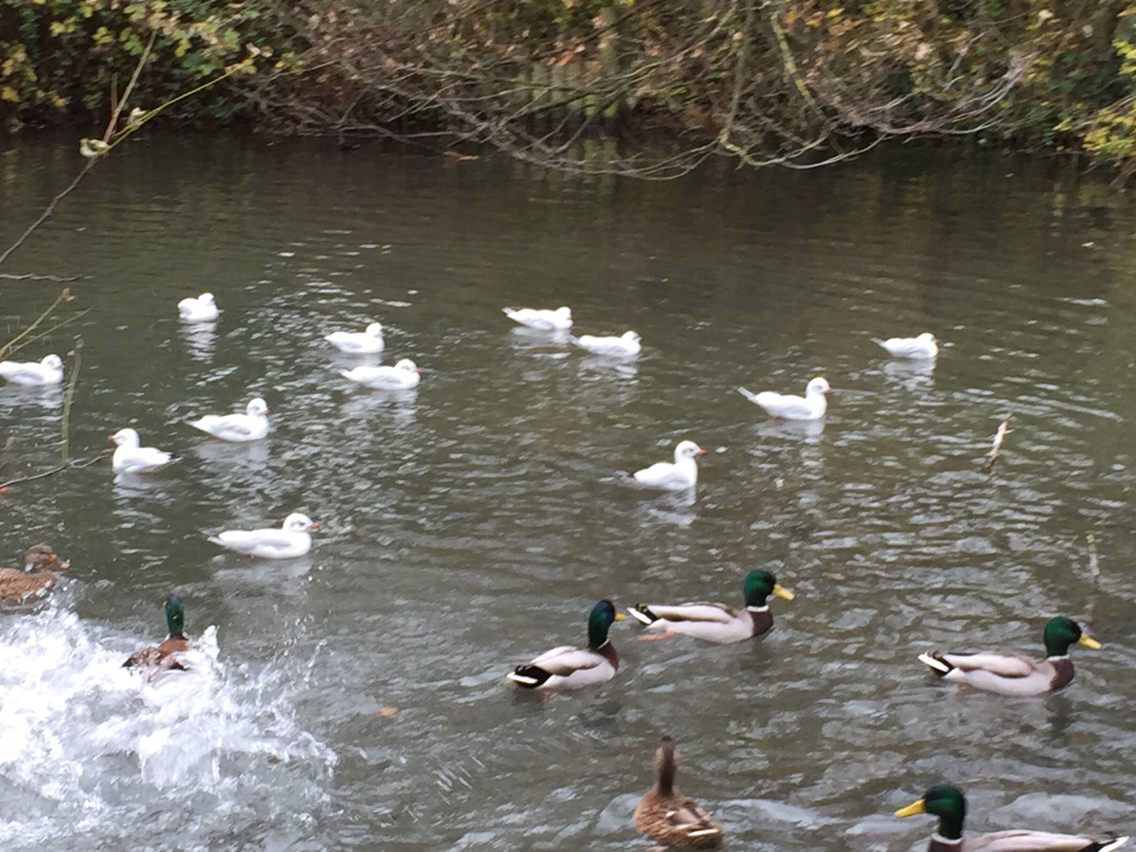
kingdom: Animalia
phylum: Chordata
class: Aves
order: Charadriiformes
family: Laridae
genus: Chroicocephalus
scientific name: Chroicocephalus ridibundus
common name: Black-headed gull
